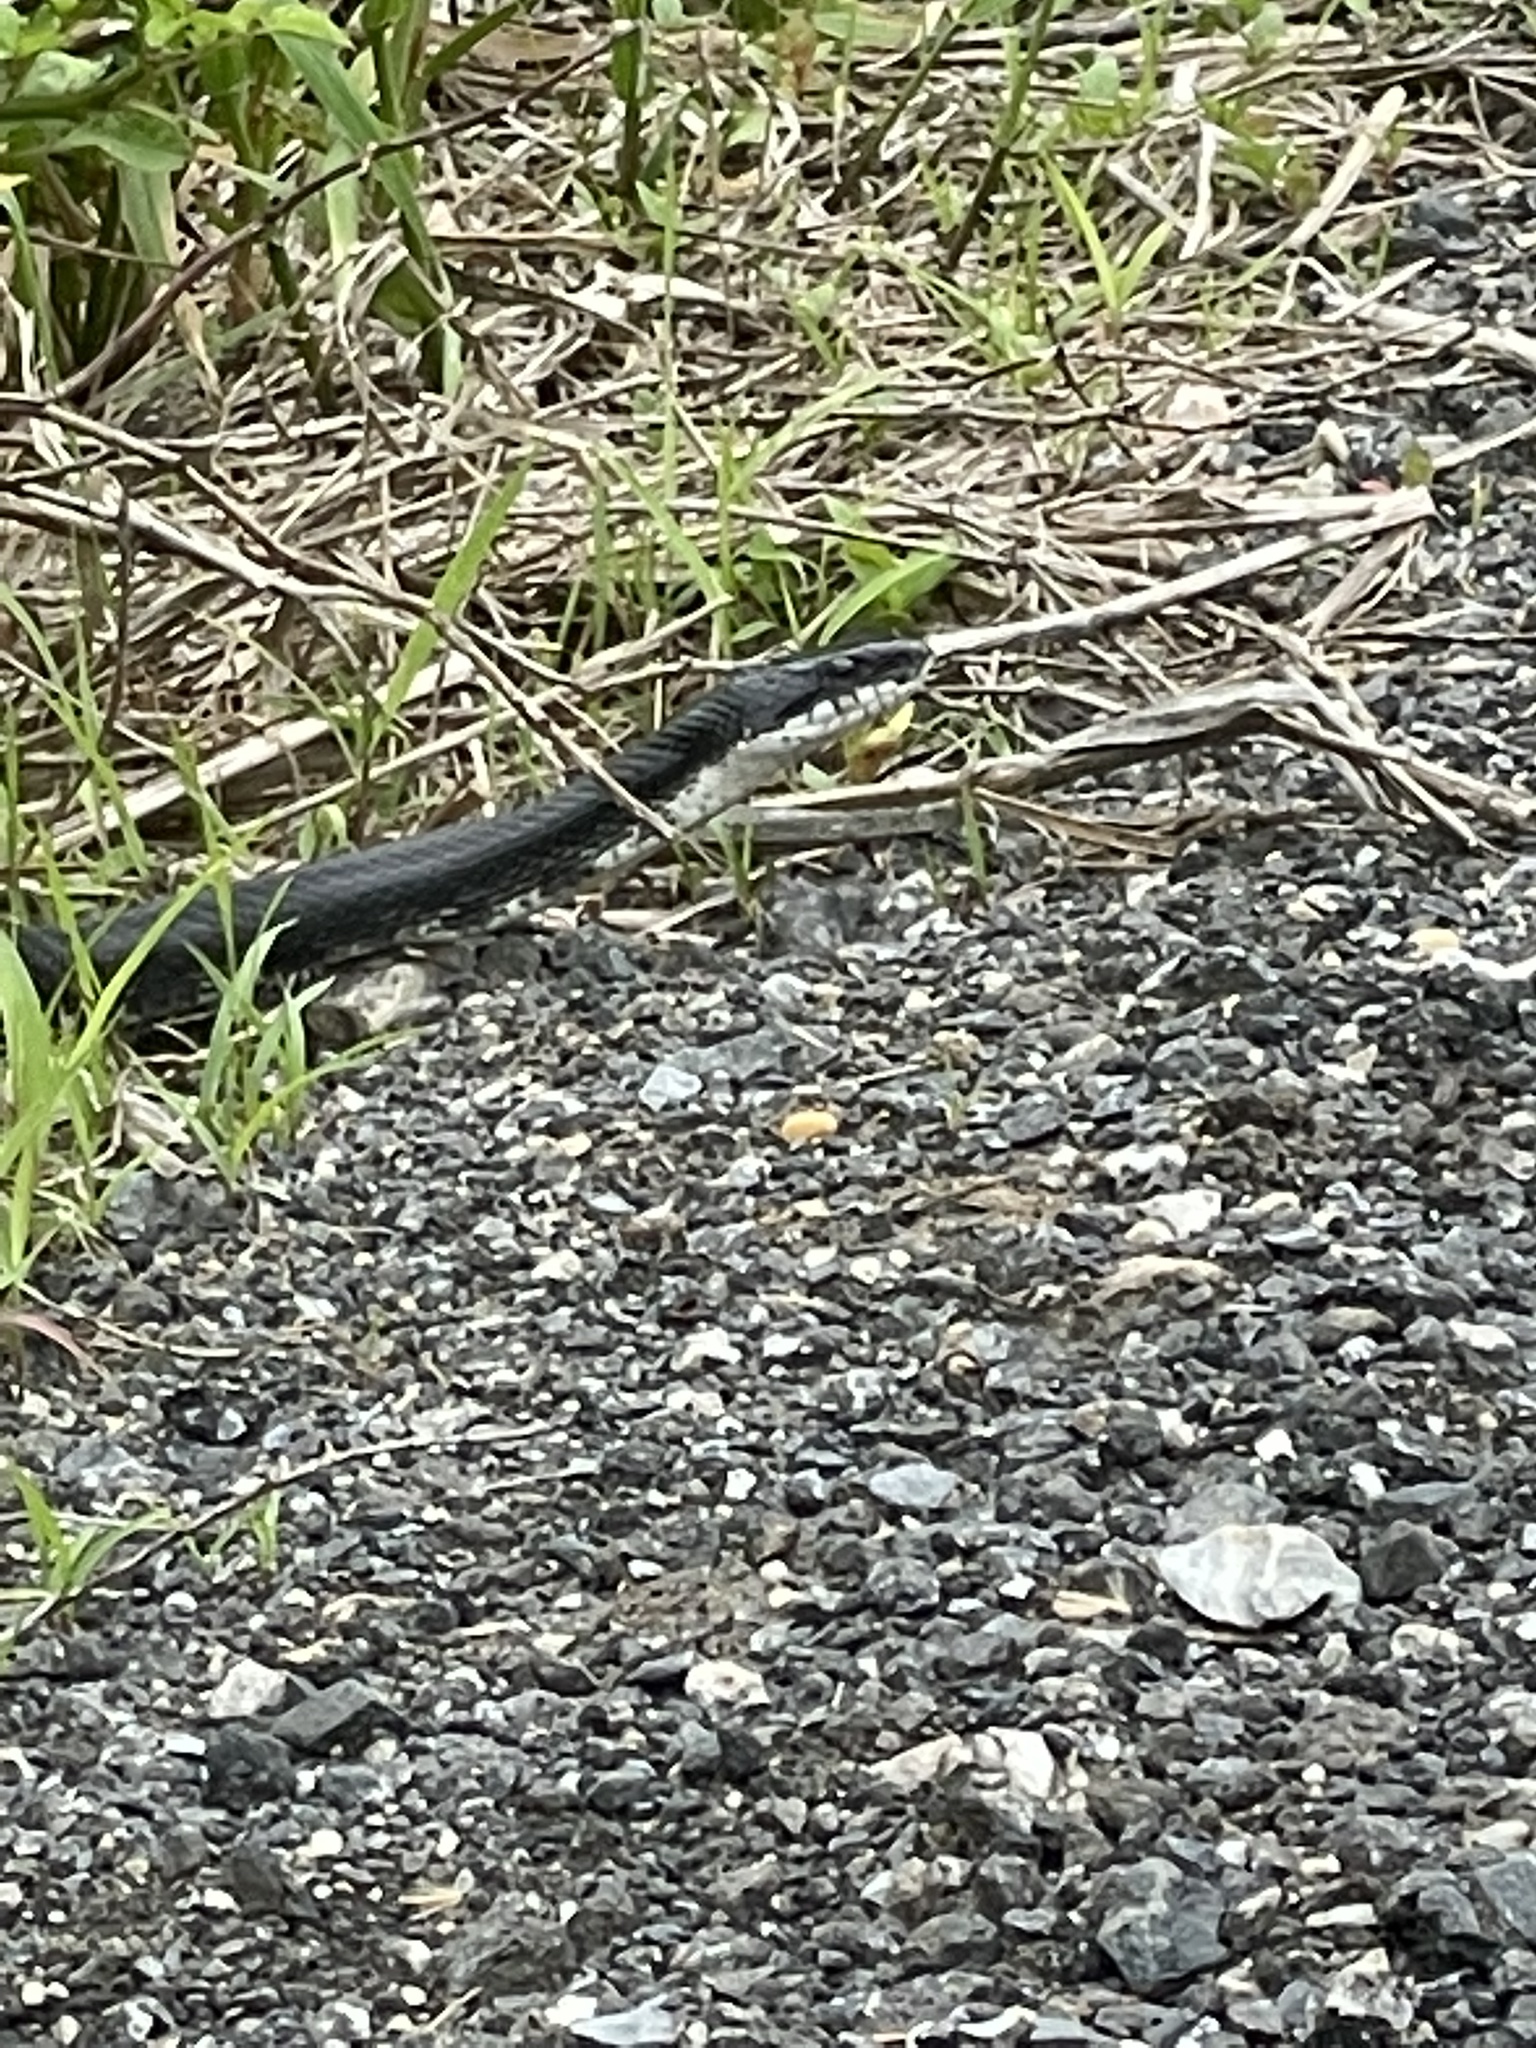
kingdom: Animalia
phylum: Chordata
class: Squamata
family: Colubridae
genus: Pantherophis
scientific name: Pantherophis alleghaniensis
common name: Eastern rat snake
